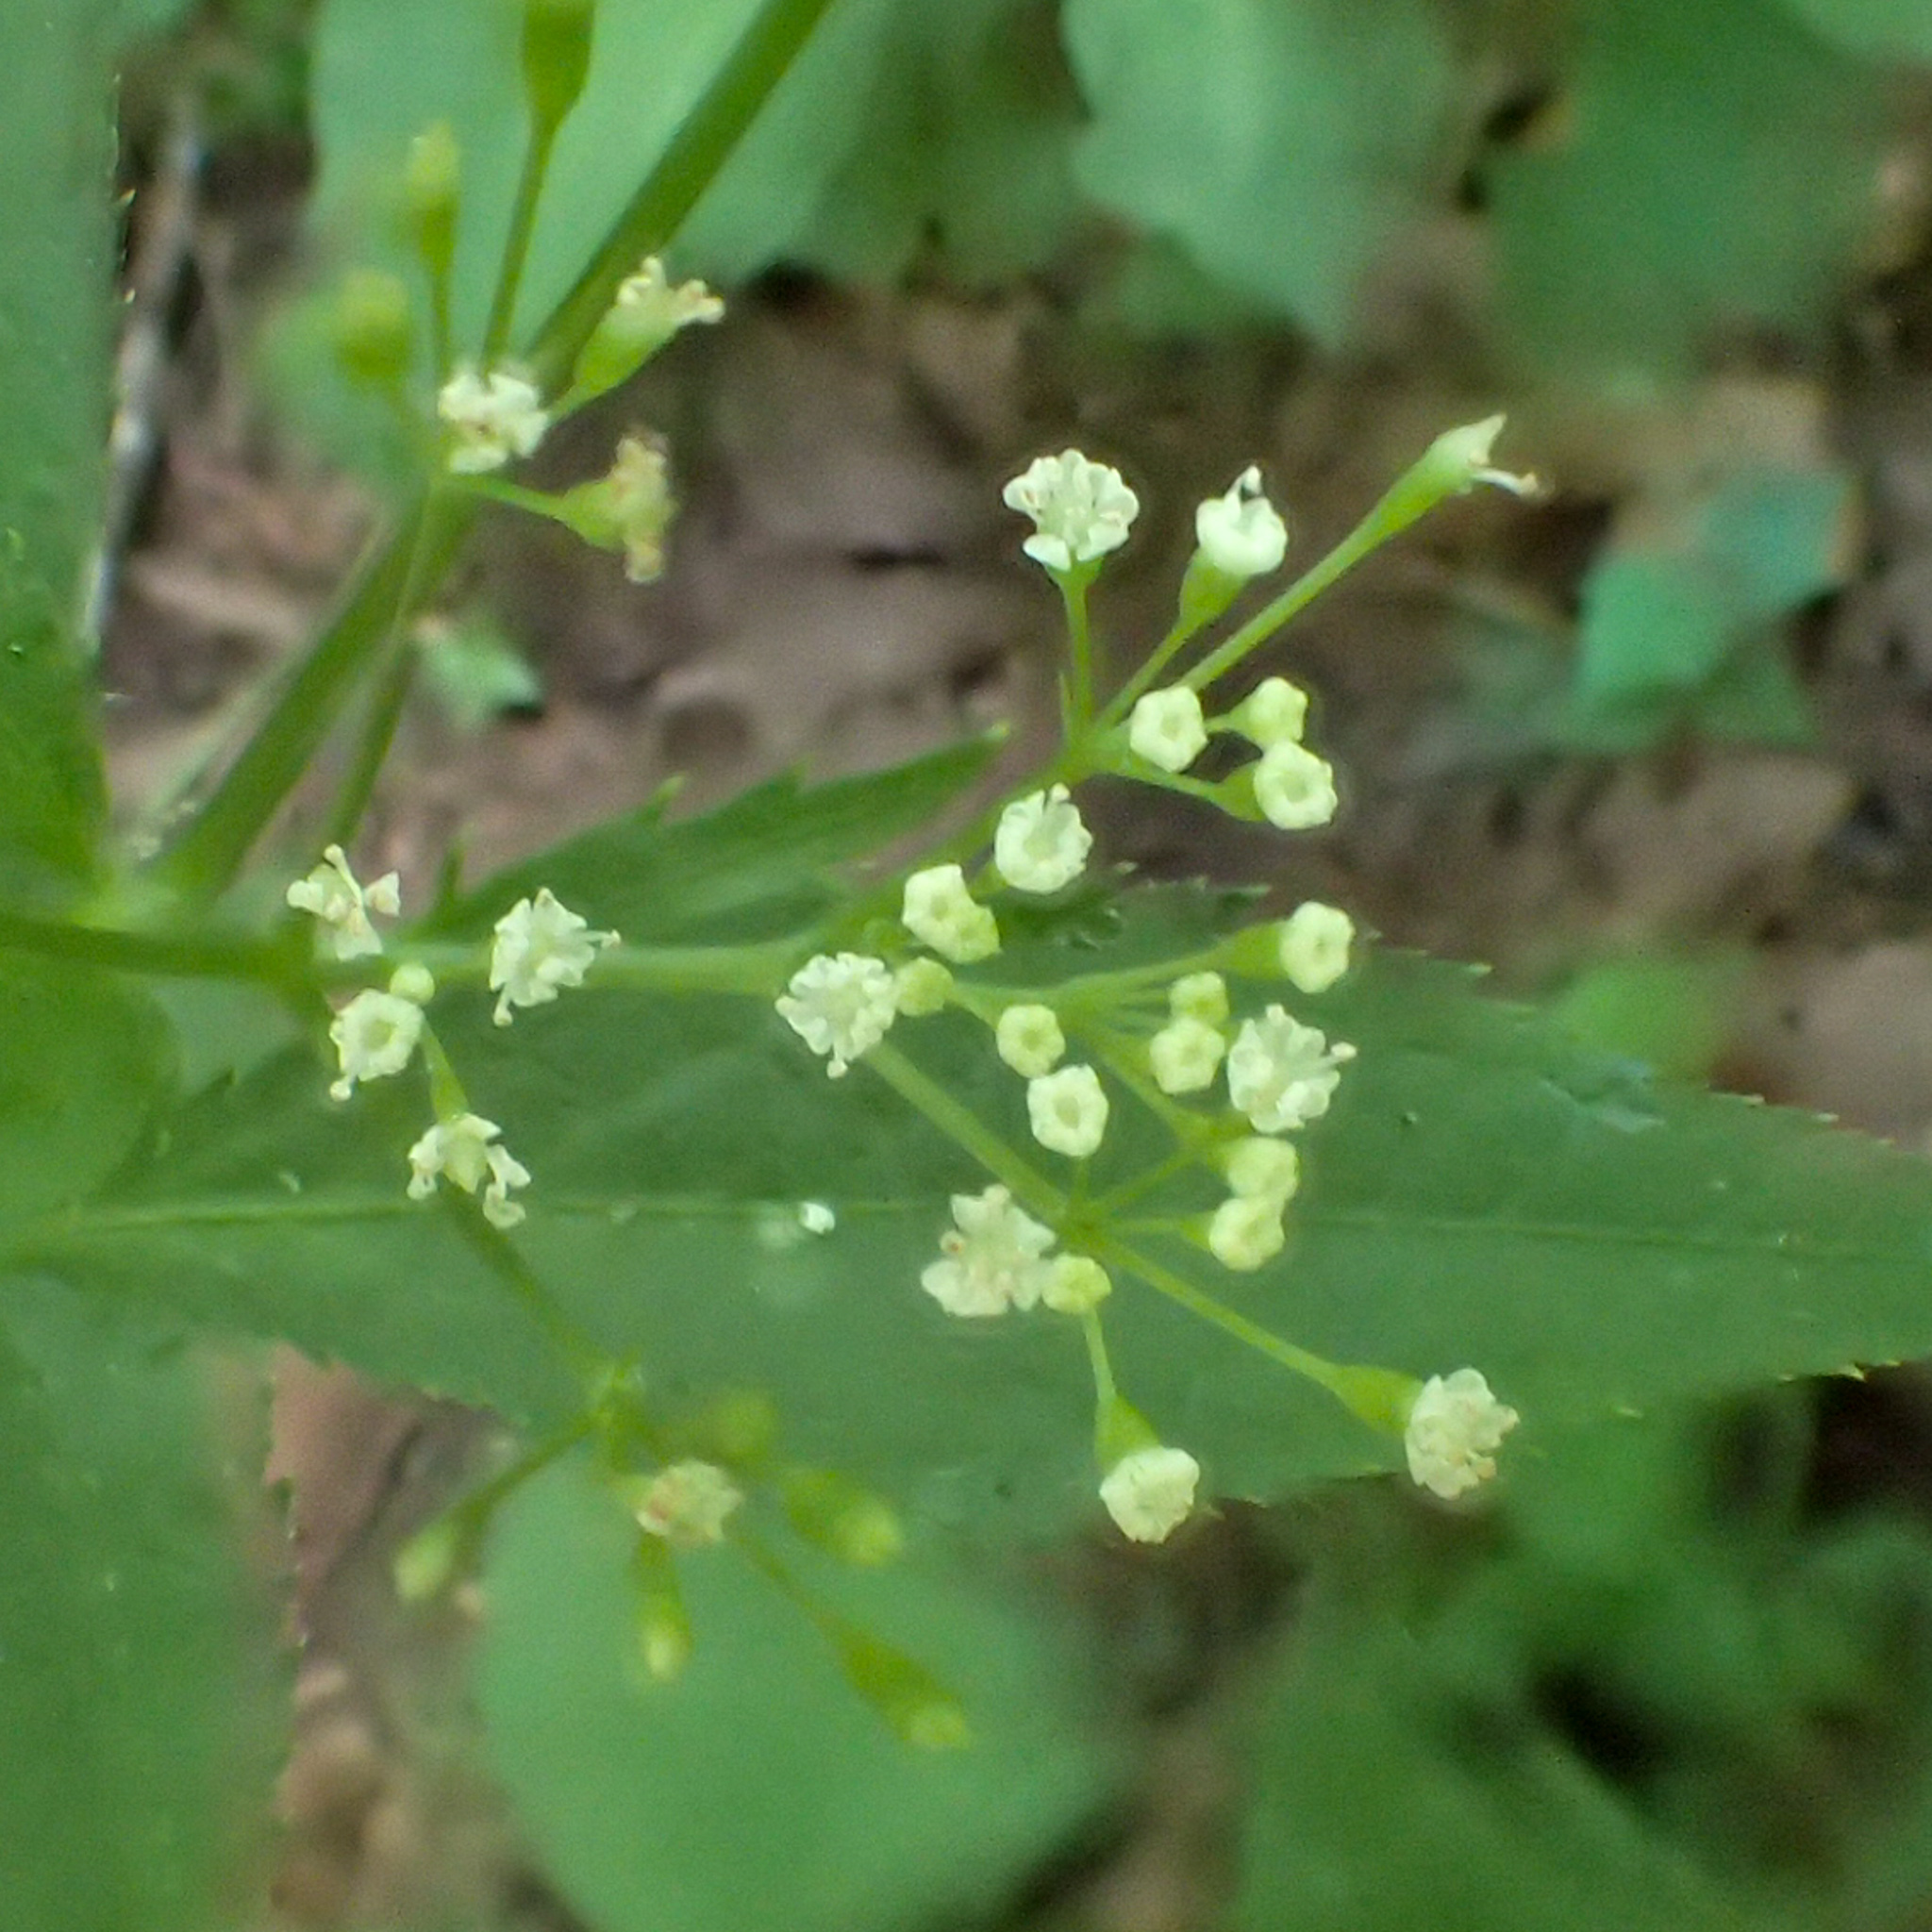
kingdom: Plantae
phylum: Tracheophyta
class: Magnoliopsida
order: Apiales
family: Apiaceae
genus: Cryptotaenia
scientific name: Cryptotaenia canadensis
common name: Honewort
